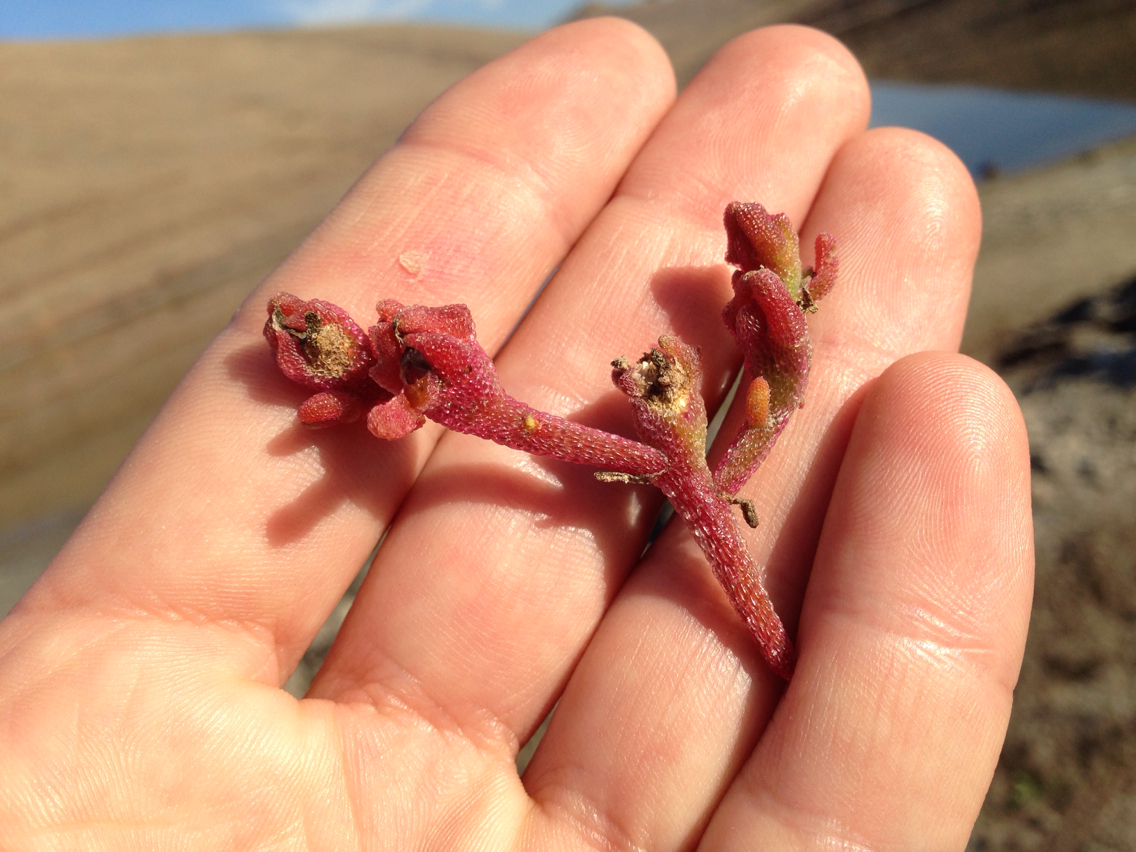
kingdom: Plantae
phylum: Tracheophyta
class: Magnoliopsida
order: Caryophyllales
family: Aizoaceae
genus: Mesembryanthemum
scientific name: Mesembryanthemum nodiflorum
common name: Slenderleaf iceplant
